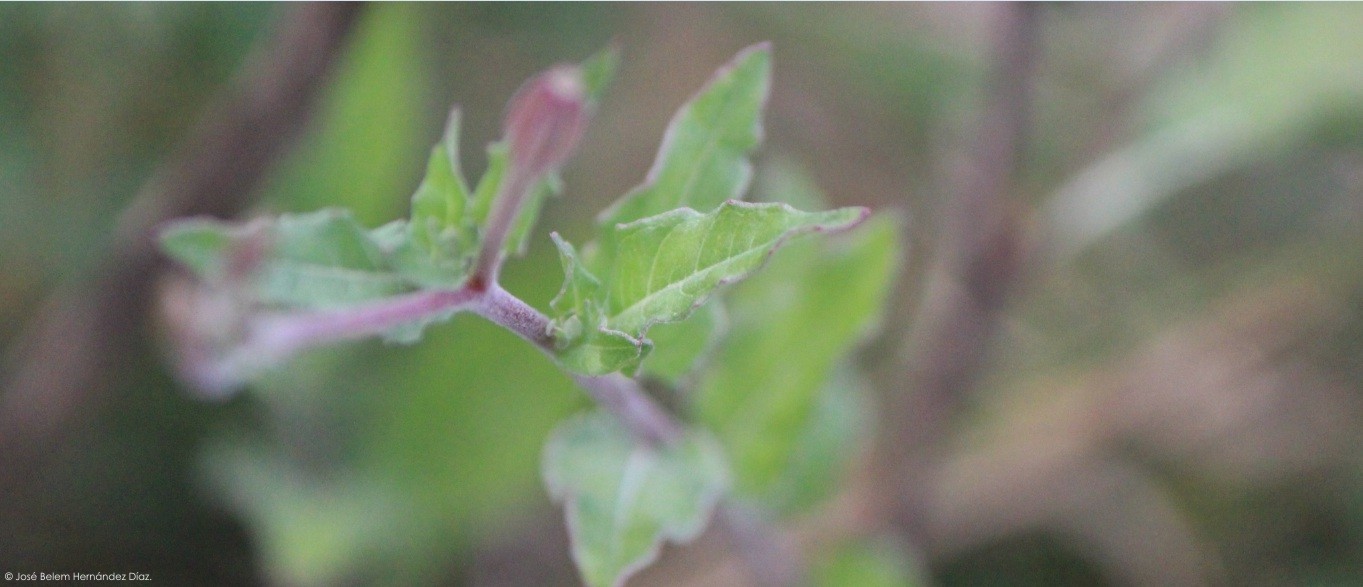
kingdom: Plantae
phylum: Tracheophyta
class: Magnoliopsida
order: Myrtales
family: Onagraceae
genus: Oenothera
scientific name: Oenothera rosea
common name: Rosy evening-primrose
